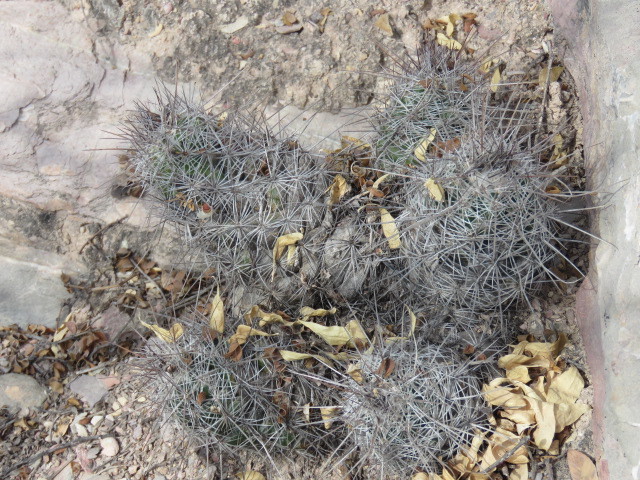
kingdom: Plantae
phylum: Tracheophyta
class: Magnoliopsida
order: Caryophyllales
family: Cactaceae
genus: Cochemiea
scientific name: Cochemiea conoidea
